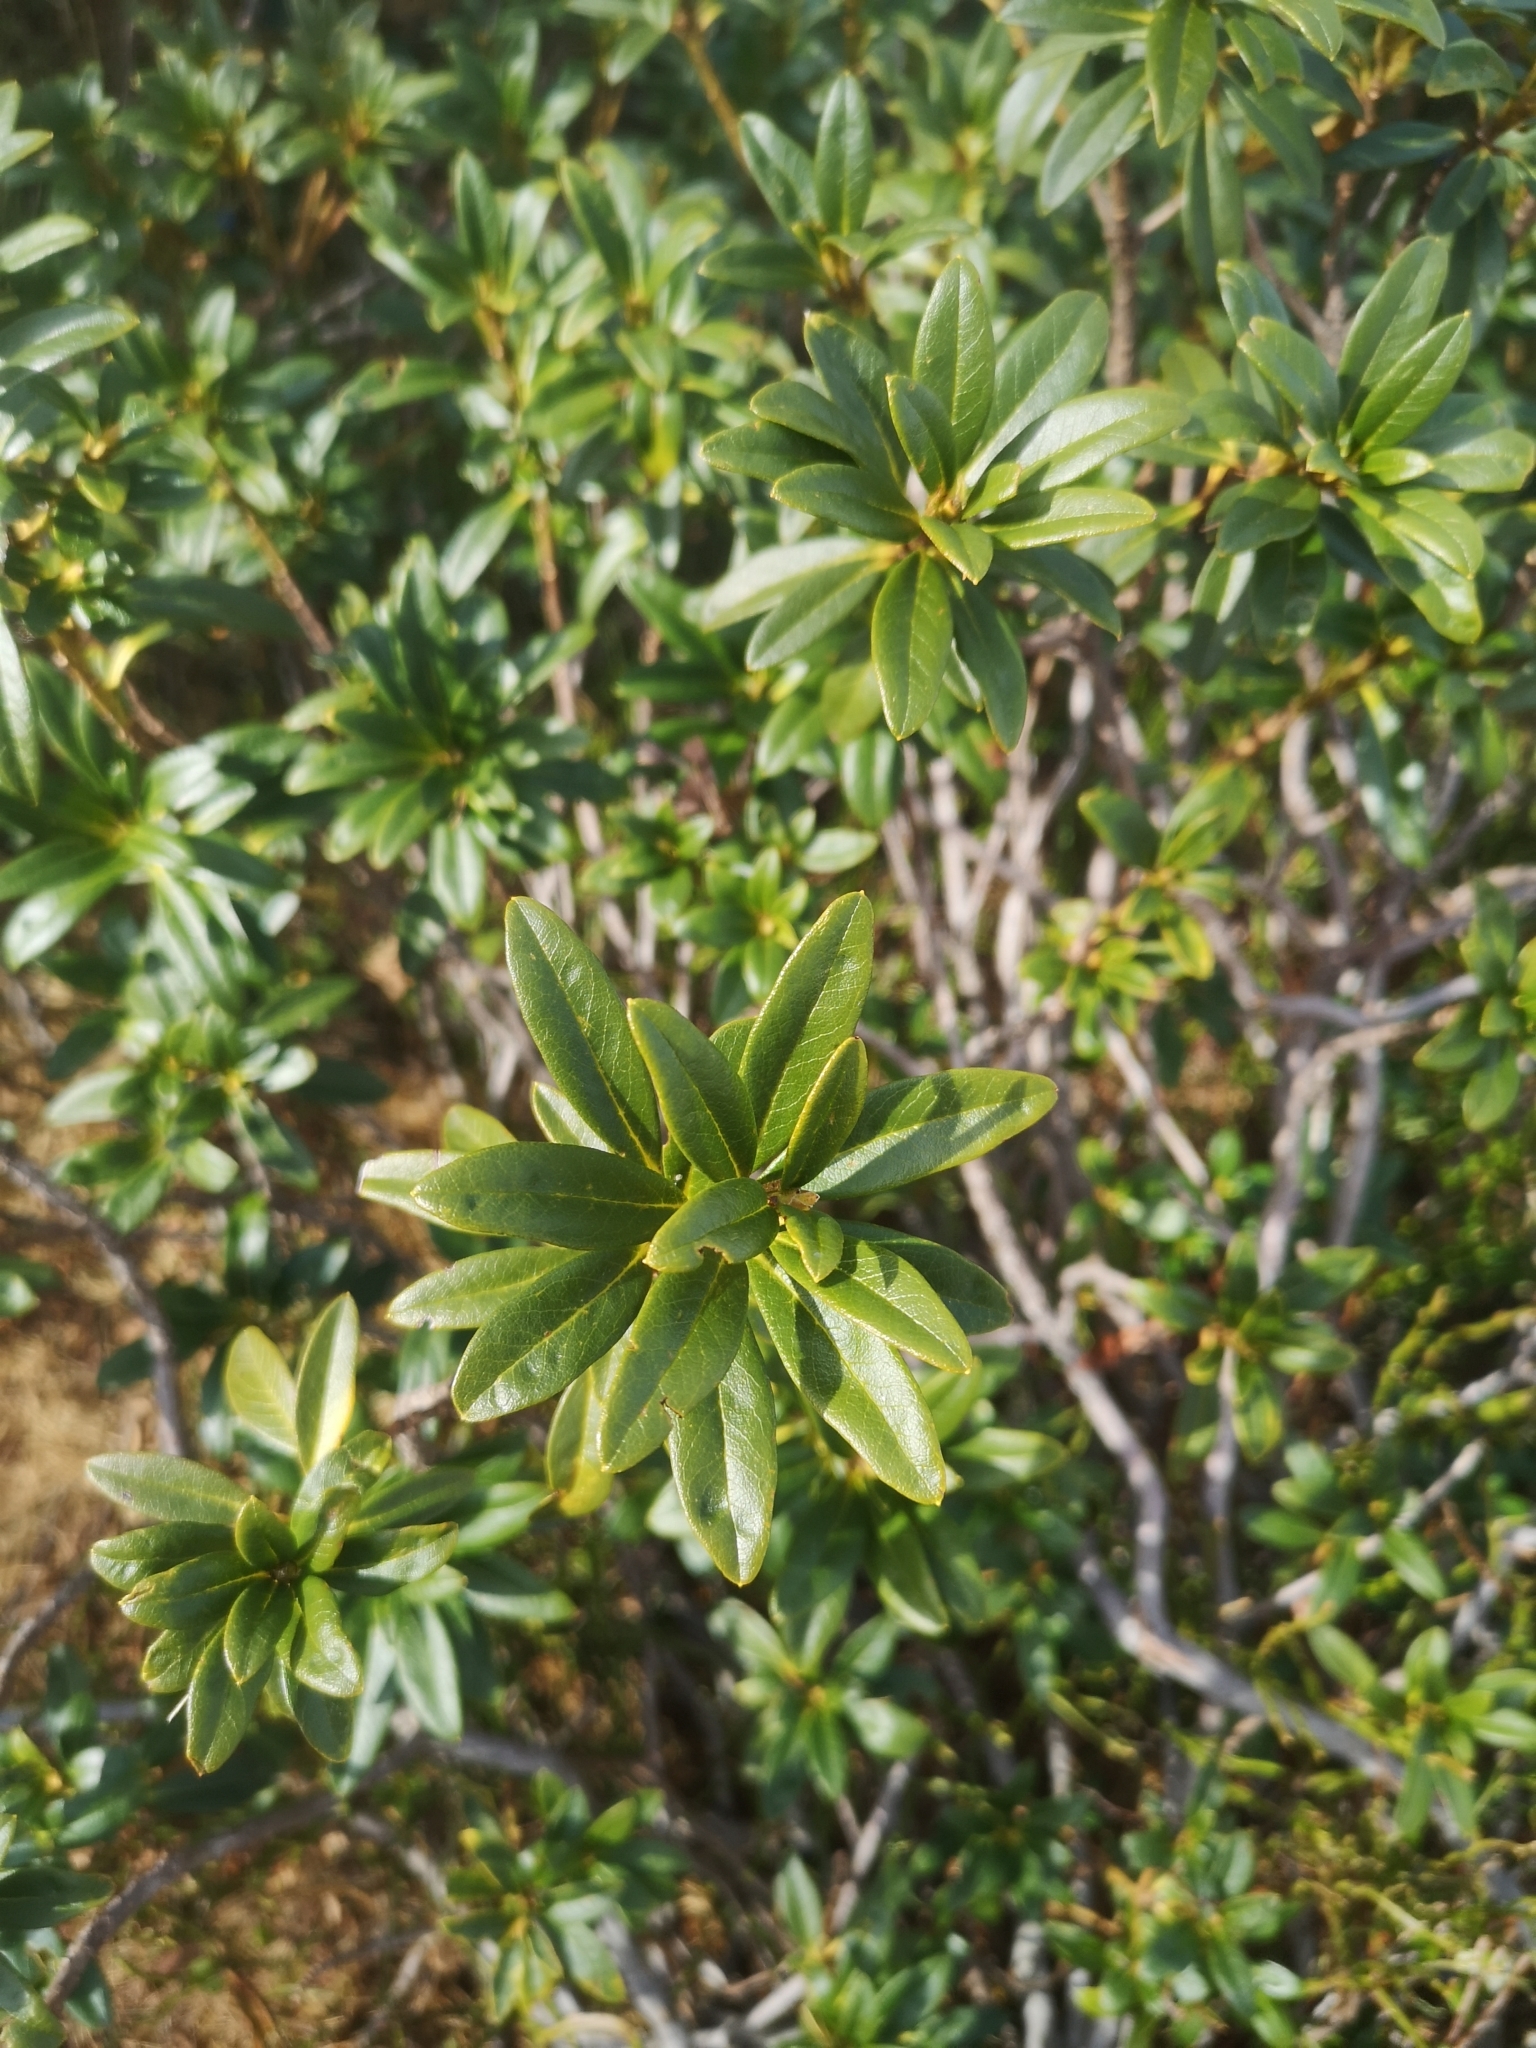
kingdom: Plantae
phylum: Tracheophyta
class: Magnoliopsida
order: Ericales
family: Ericaceae
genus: Rhododendron
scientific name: Rhododendron ferrugineum
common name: Alpenrose
